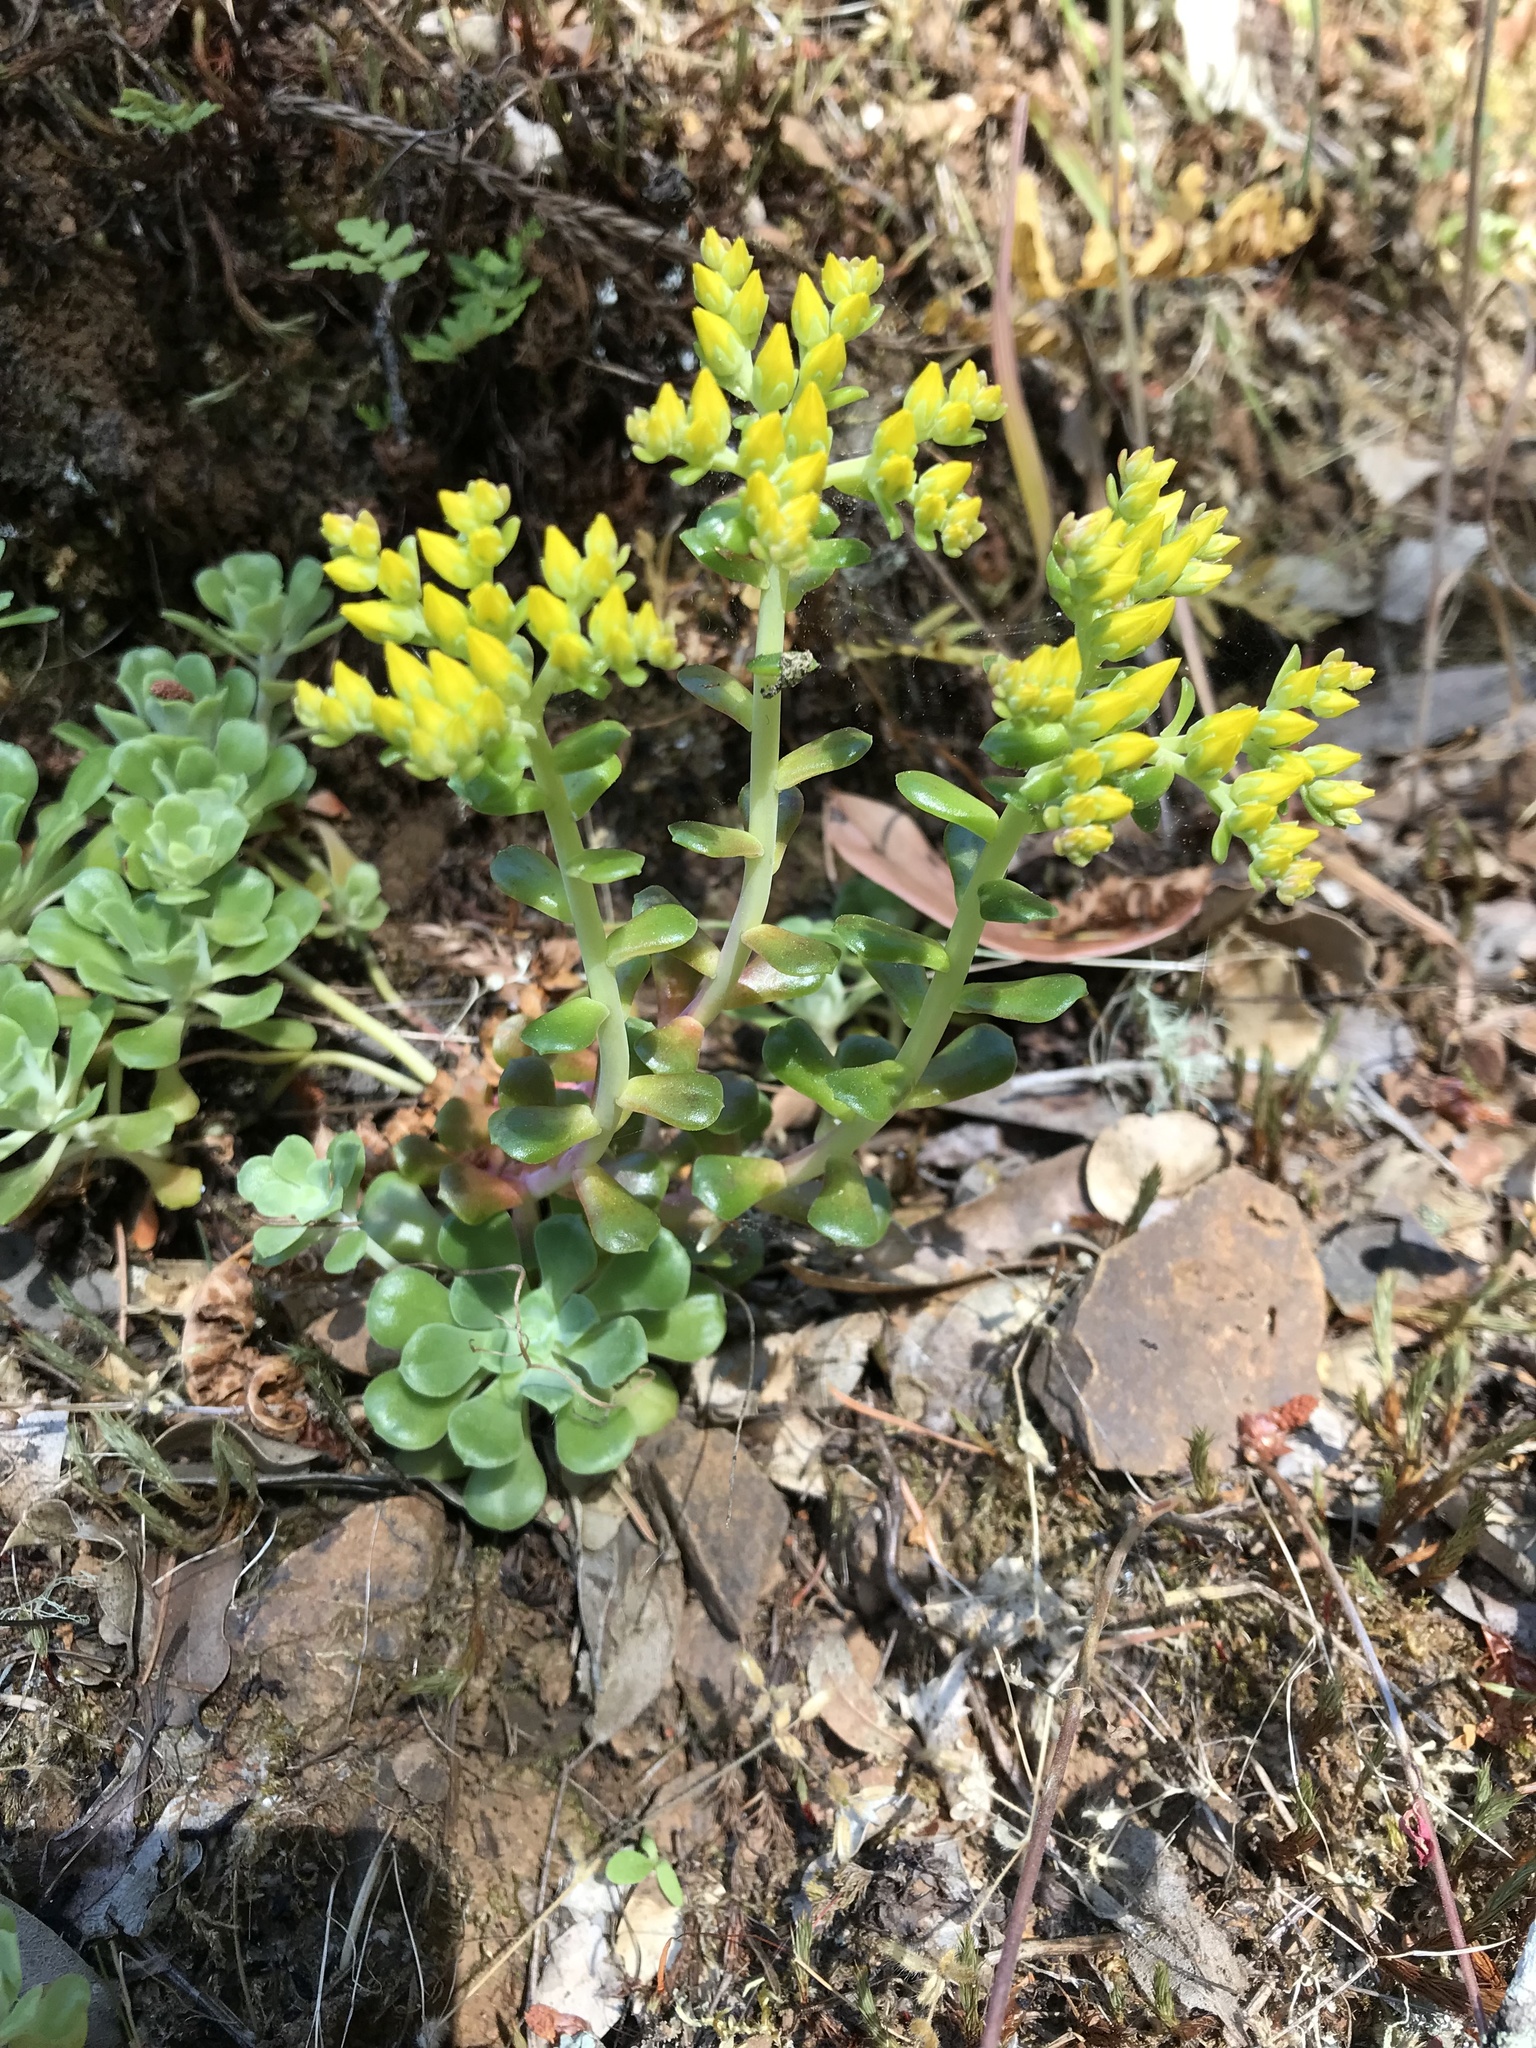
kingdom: Plantae
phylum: Tracheophyta
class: Magnoliopsida
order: Saxifragales
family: Crassulaceae
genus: Sedum
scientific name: Sedum spathulifolium
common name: Colorado stonecrop
